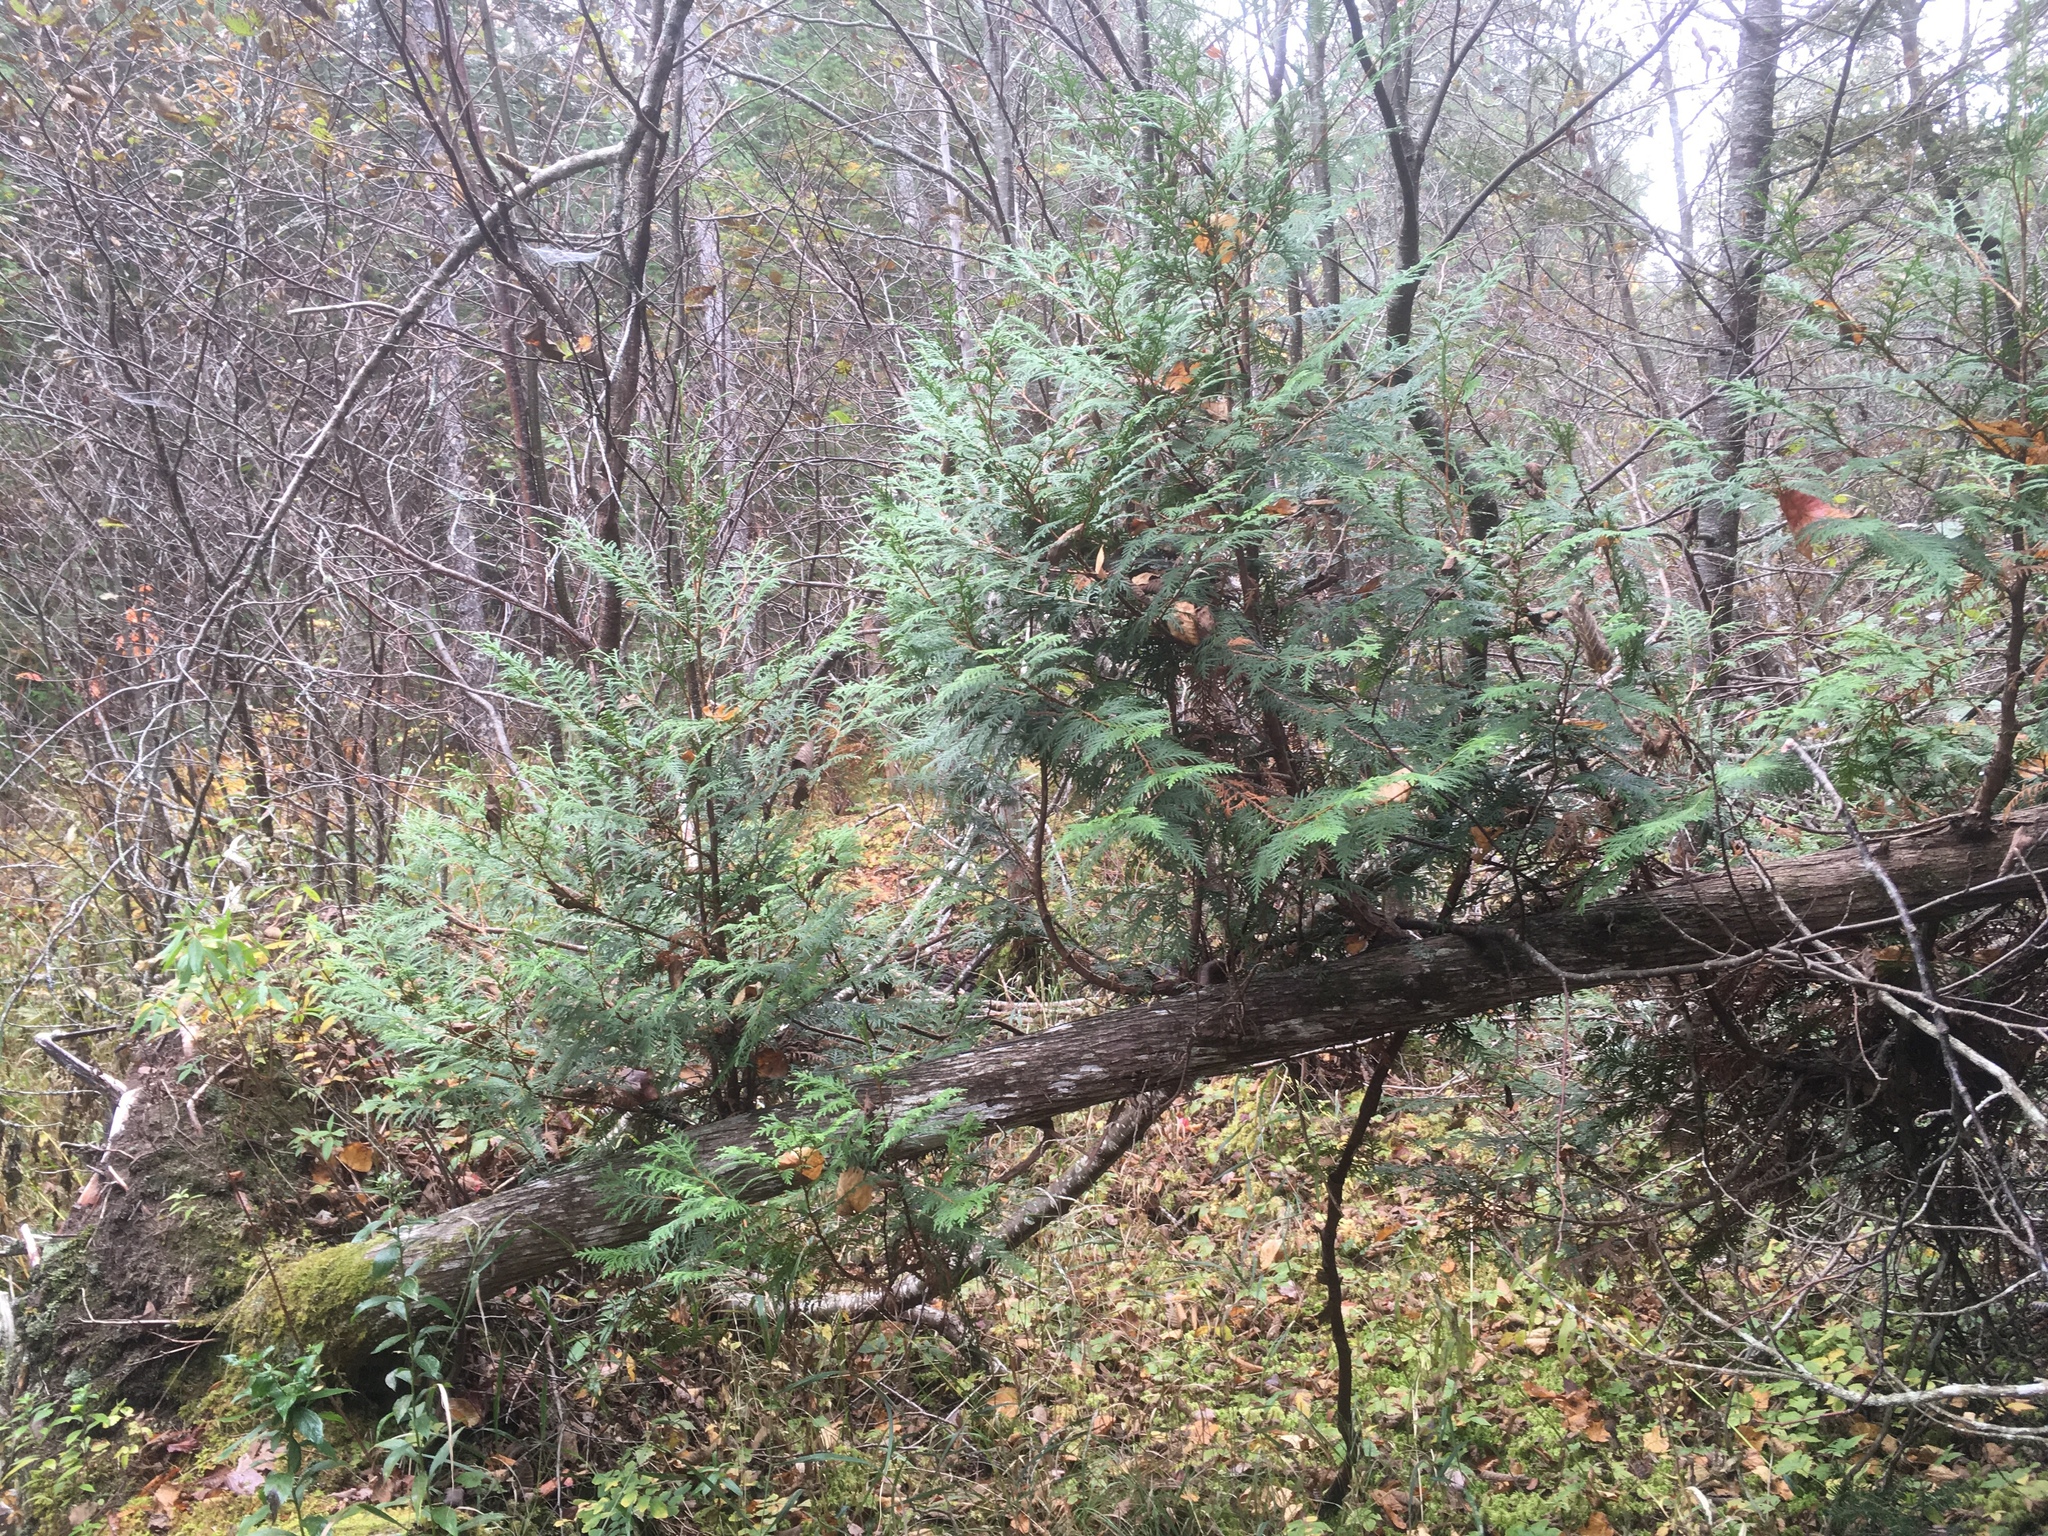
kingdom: Plantae
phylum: Tracheophyta
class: Pinopsida
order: Pinales
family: Cupressaceae
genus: Thuja
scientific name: Thuja occidentalis
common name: Northern white-cedar
